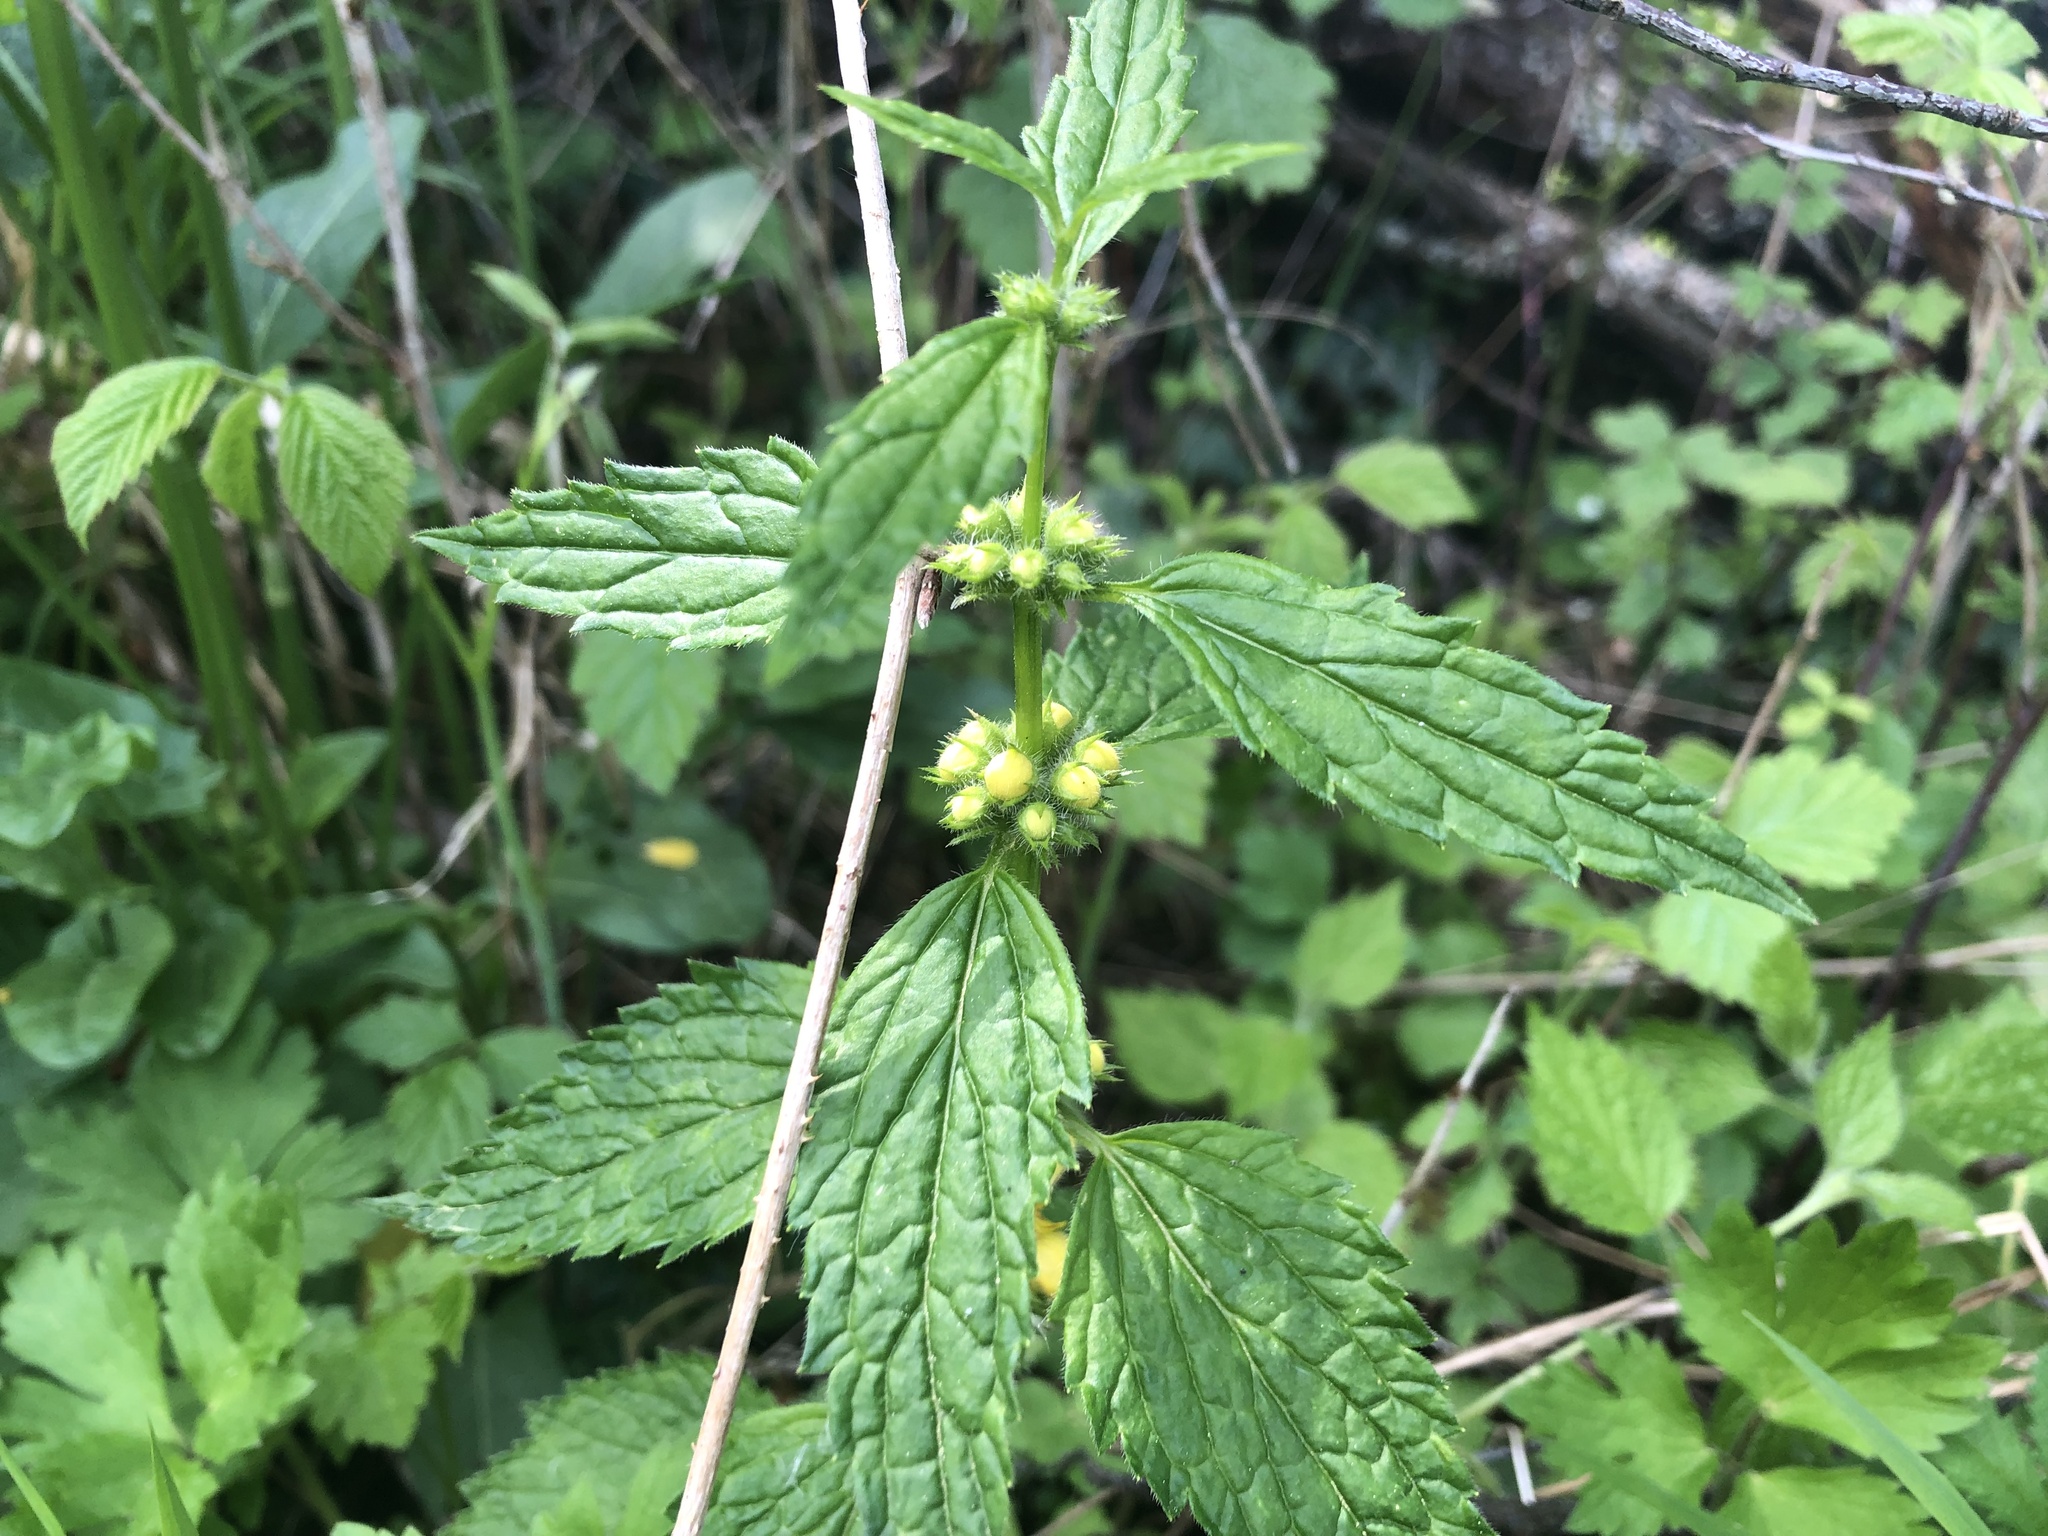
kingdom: Plantae
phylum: Tracheophyta
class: Magnoliopsida
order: Lamiales
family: Lamiaceae
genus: Lamium
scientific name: Lamium galeobdolon
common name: Yellow archangel
